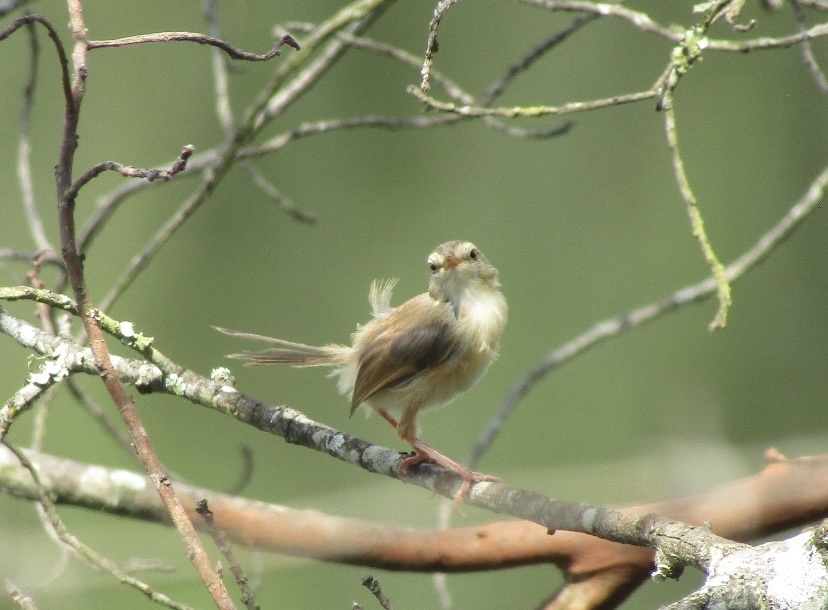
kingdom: Animalia
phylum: Chordata
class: Aves
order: Passeriformes
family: Cisticolidae
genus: Prinia
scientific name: Prinia subflava
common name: Tawny-flanked prinia
